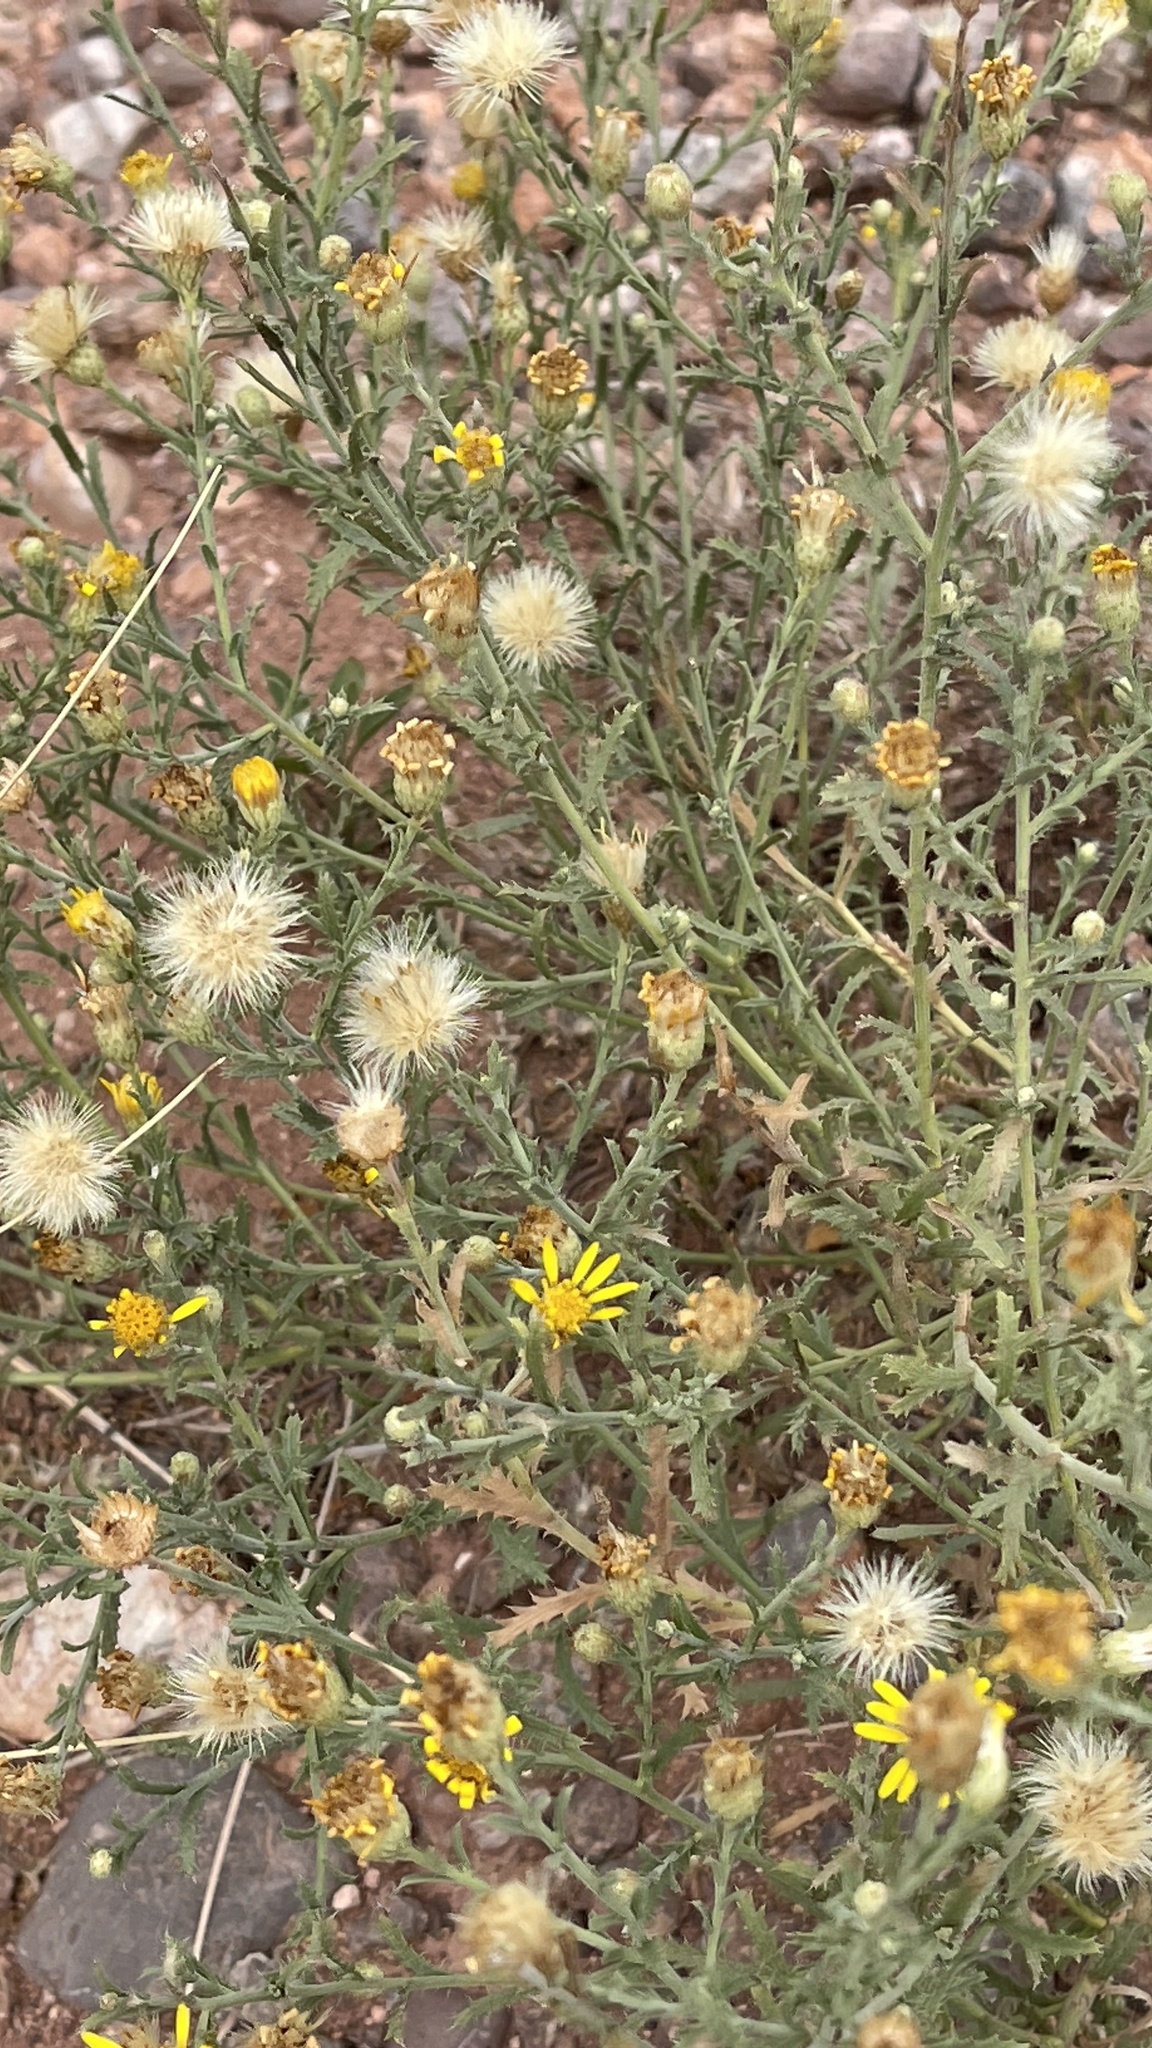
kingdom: Plantae
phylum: Tracheophyta
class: Magnoliopsida
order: Asterales
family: Asteraceae
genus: Xanthisma
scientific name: Xanthisma spinulosum
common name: Spiny goldenweed
